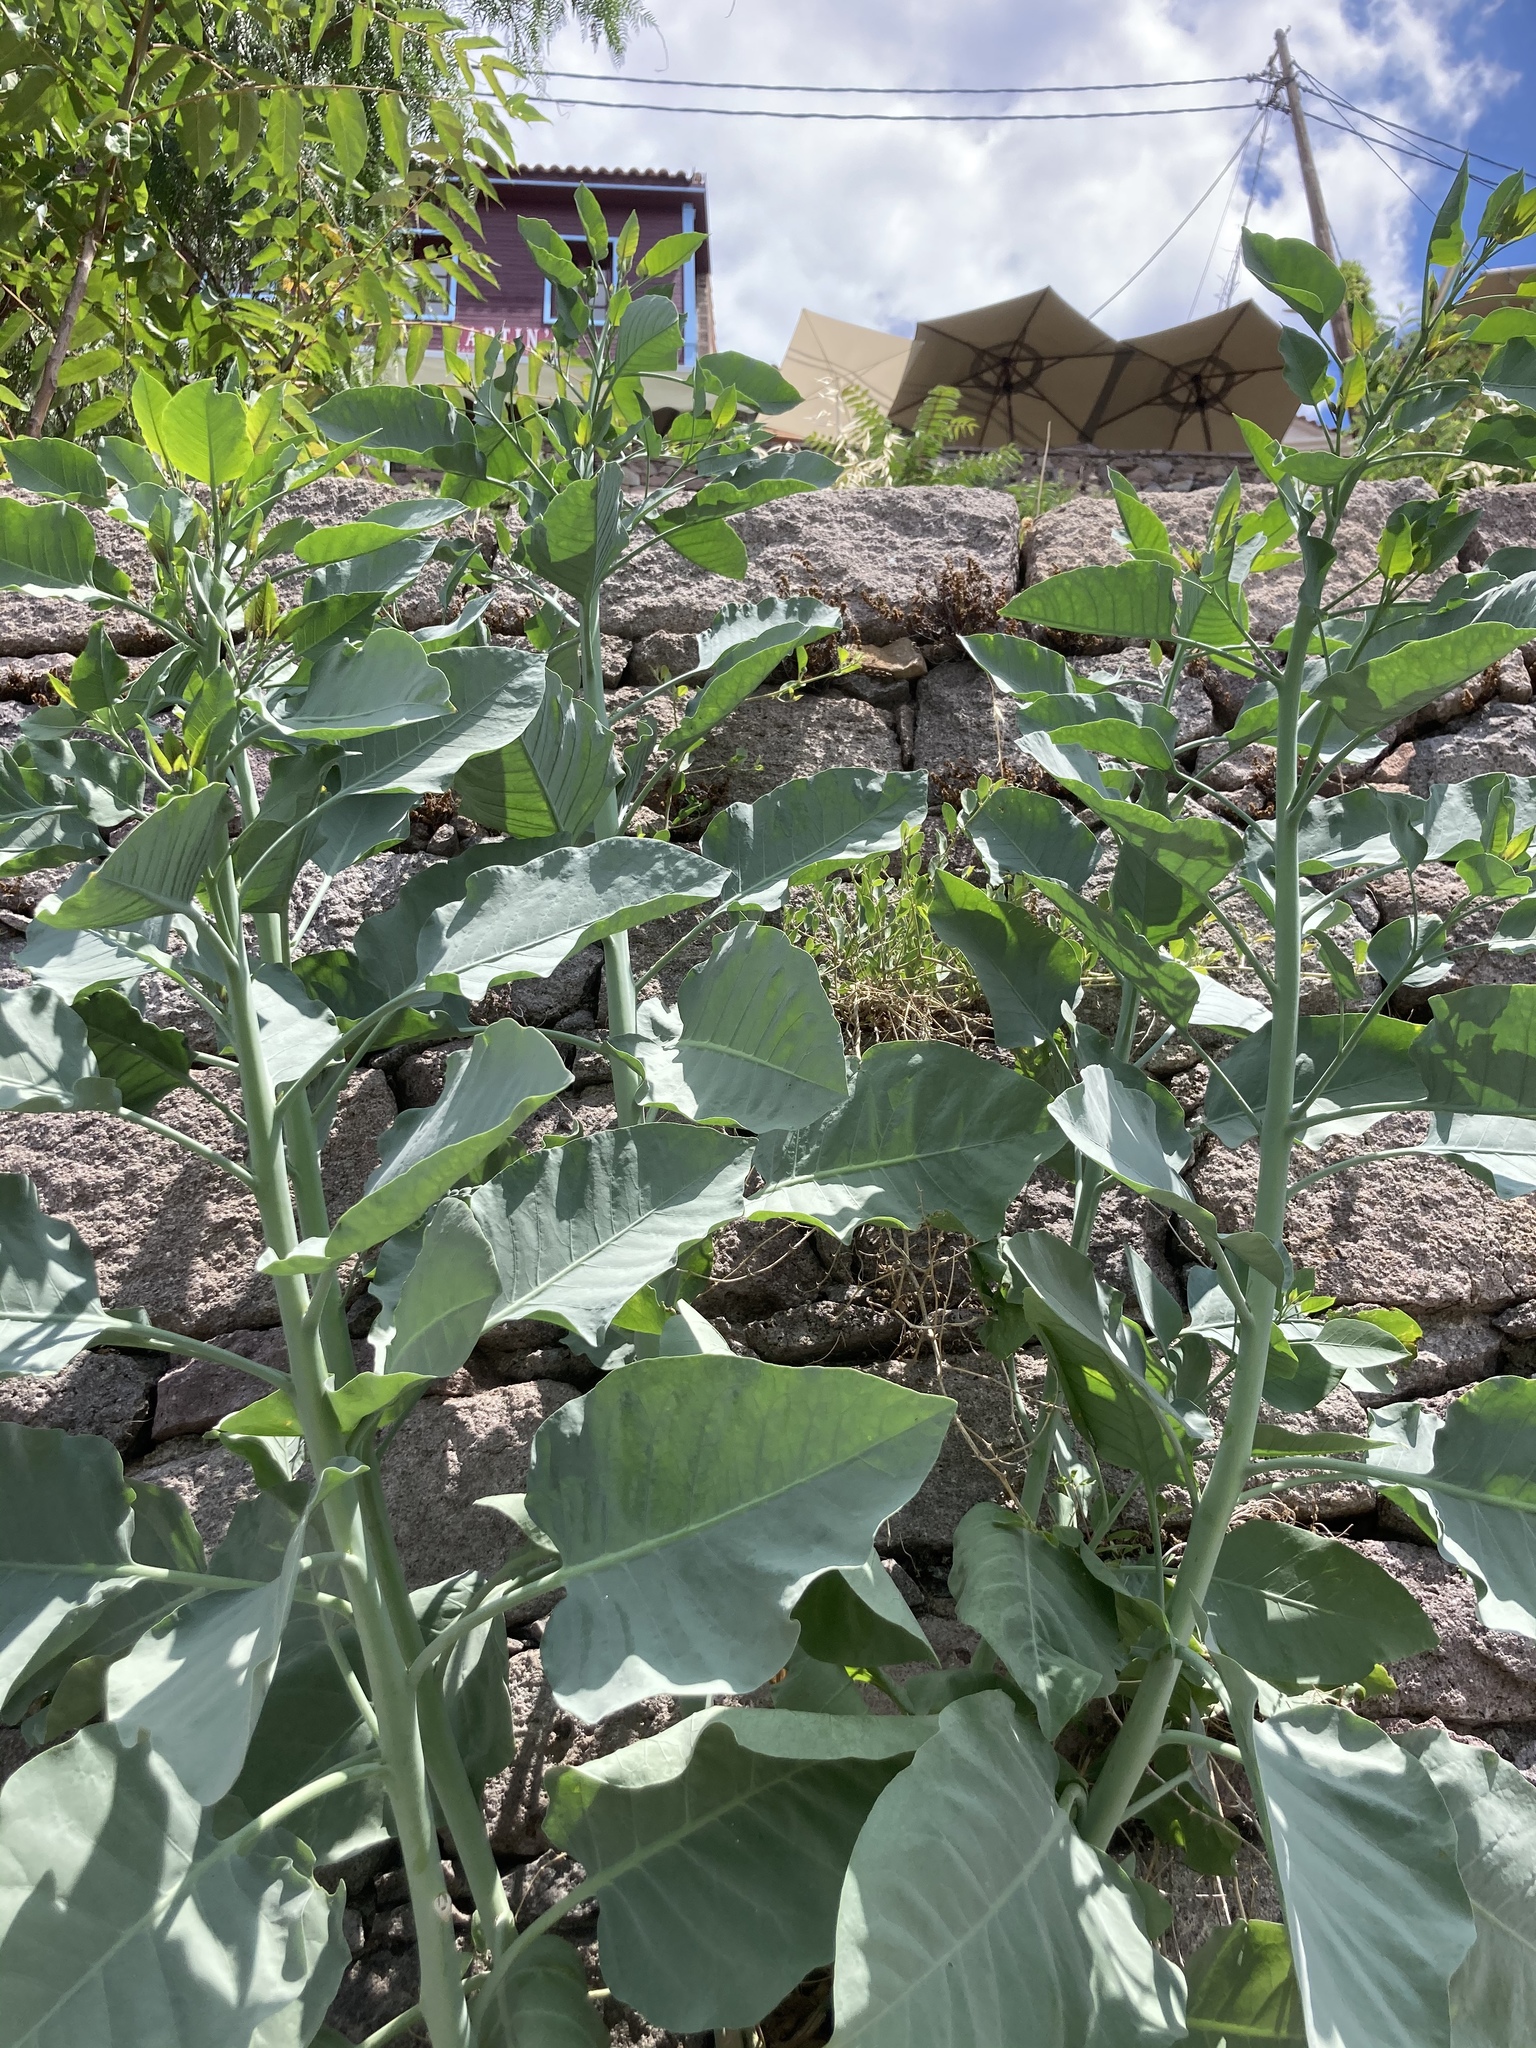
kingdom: Plantae
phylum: Tracheophyta
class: Magnoliopsida
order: Solanales
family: Solanaceae
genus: Nicotiana
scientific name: Nicotiana glauca
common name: Tree tobacco
